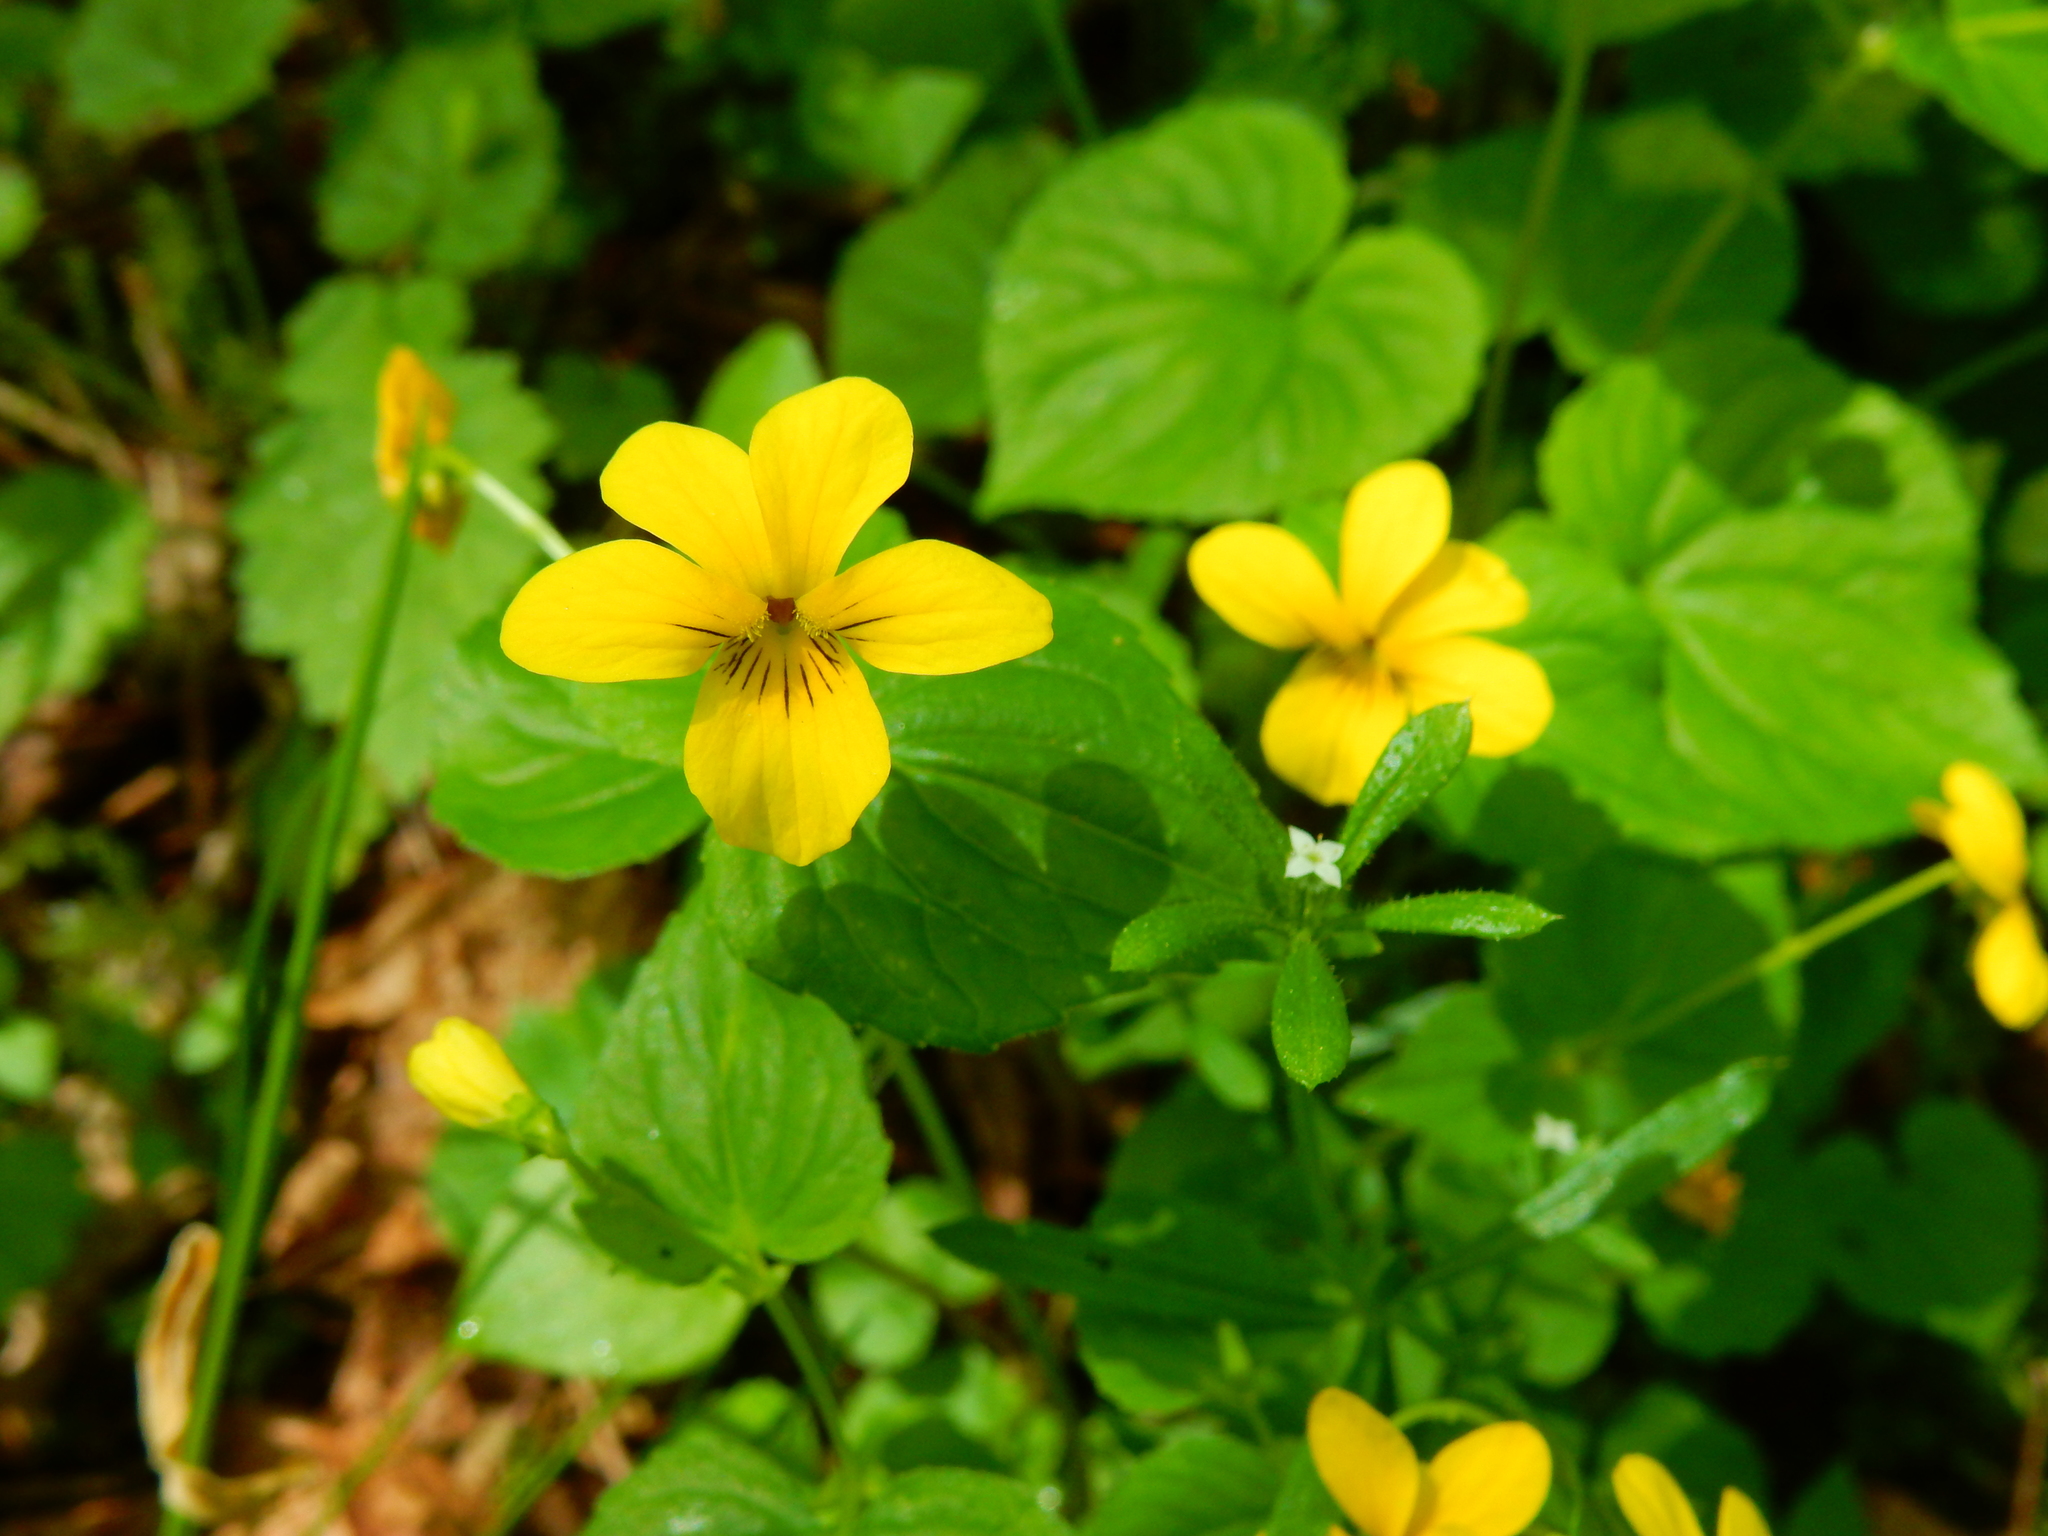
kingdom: Plantae
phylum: Tracheophyta
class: Magnoliopsida
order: Malpighiales
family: Violaceae
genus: Viola
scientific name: Viola glabella
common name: Stream violet
